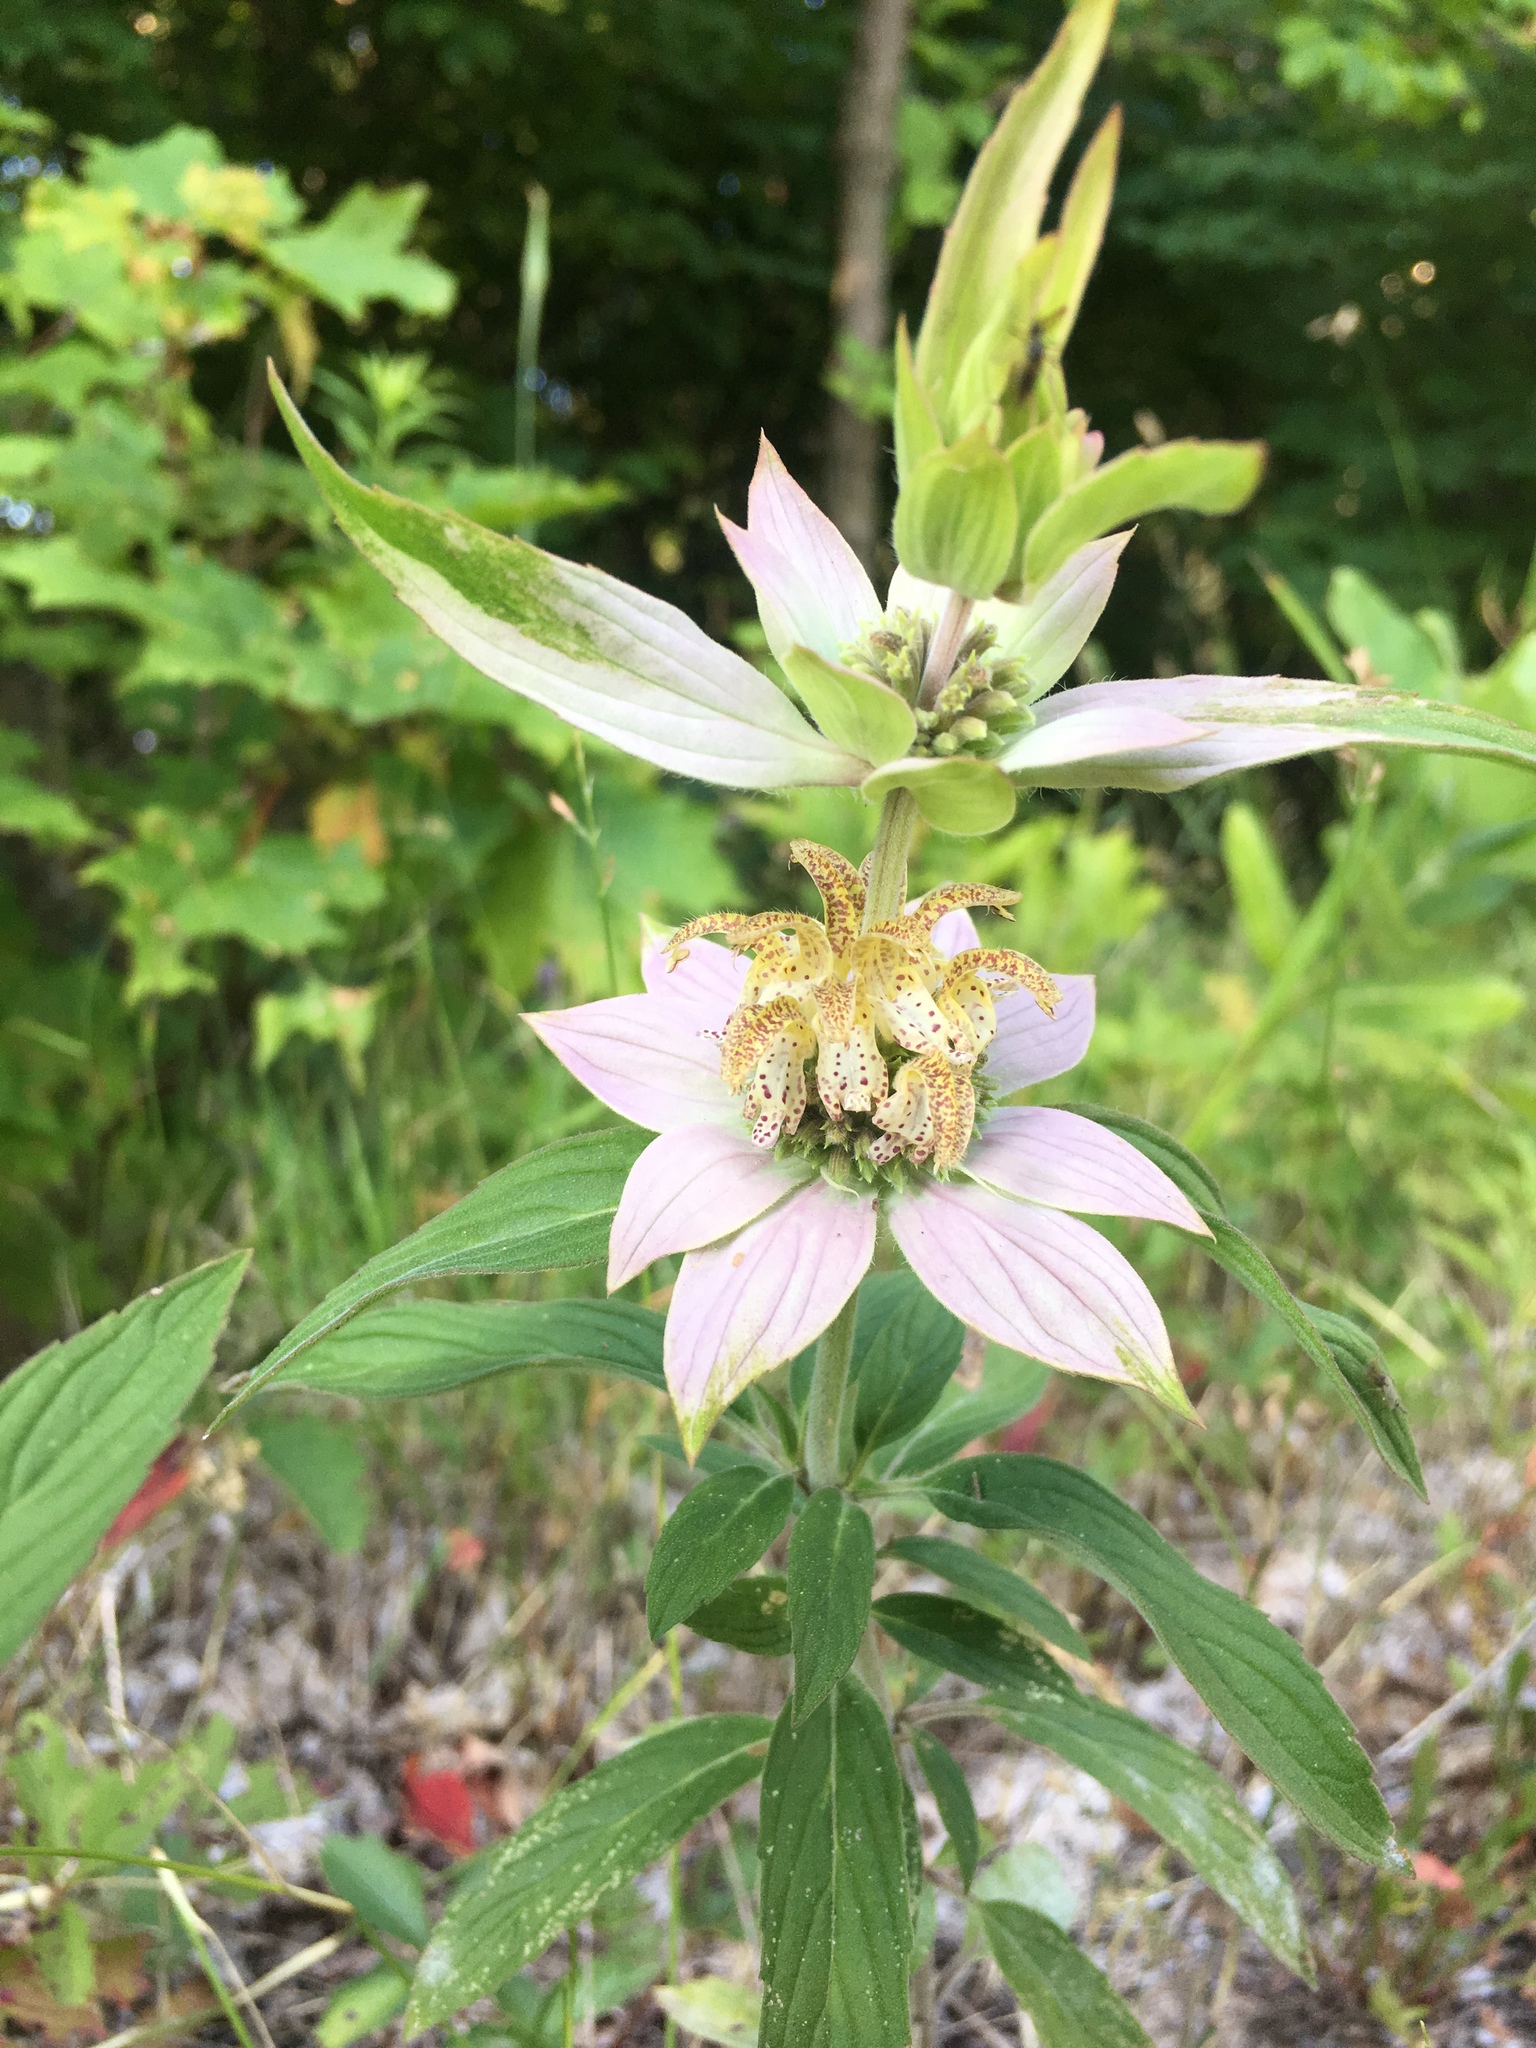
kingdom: Plantae
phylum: Tracheophyta
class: Magnoliopsida
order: Lamiales
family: Lamiaceae
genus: Monarda
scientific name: Monarda punctata
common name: Dotted monarda
